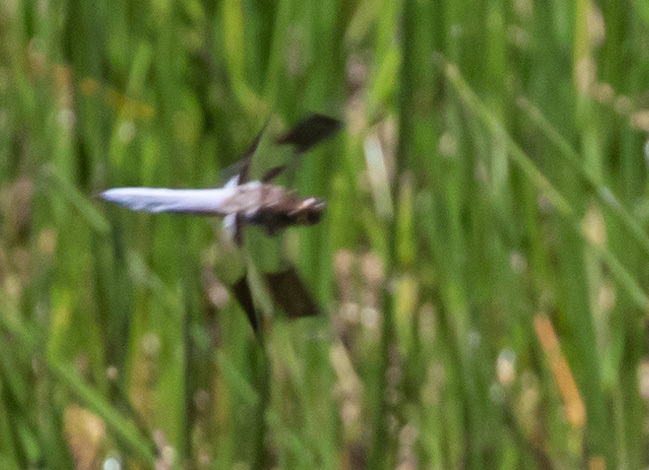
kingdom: Animalia
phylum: Arthropoda
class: Insecta
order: Odonata
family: Libellulidae
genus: Plathemis
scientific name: Plathemis lydia
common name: Common whitetail
